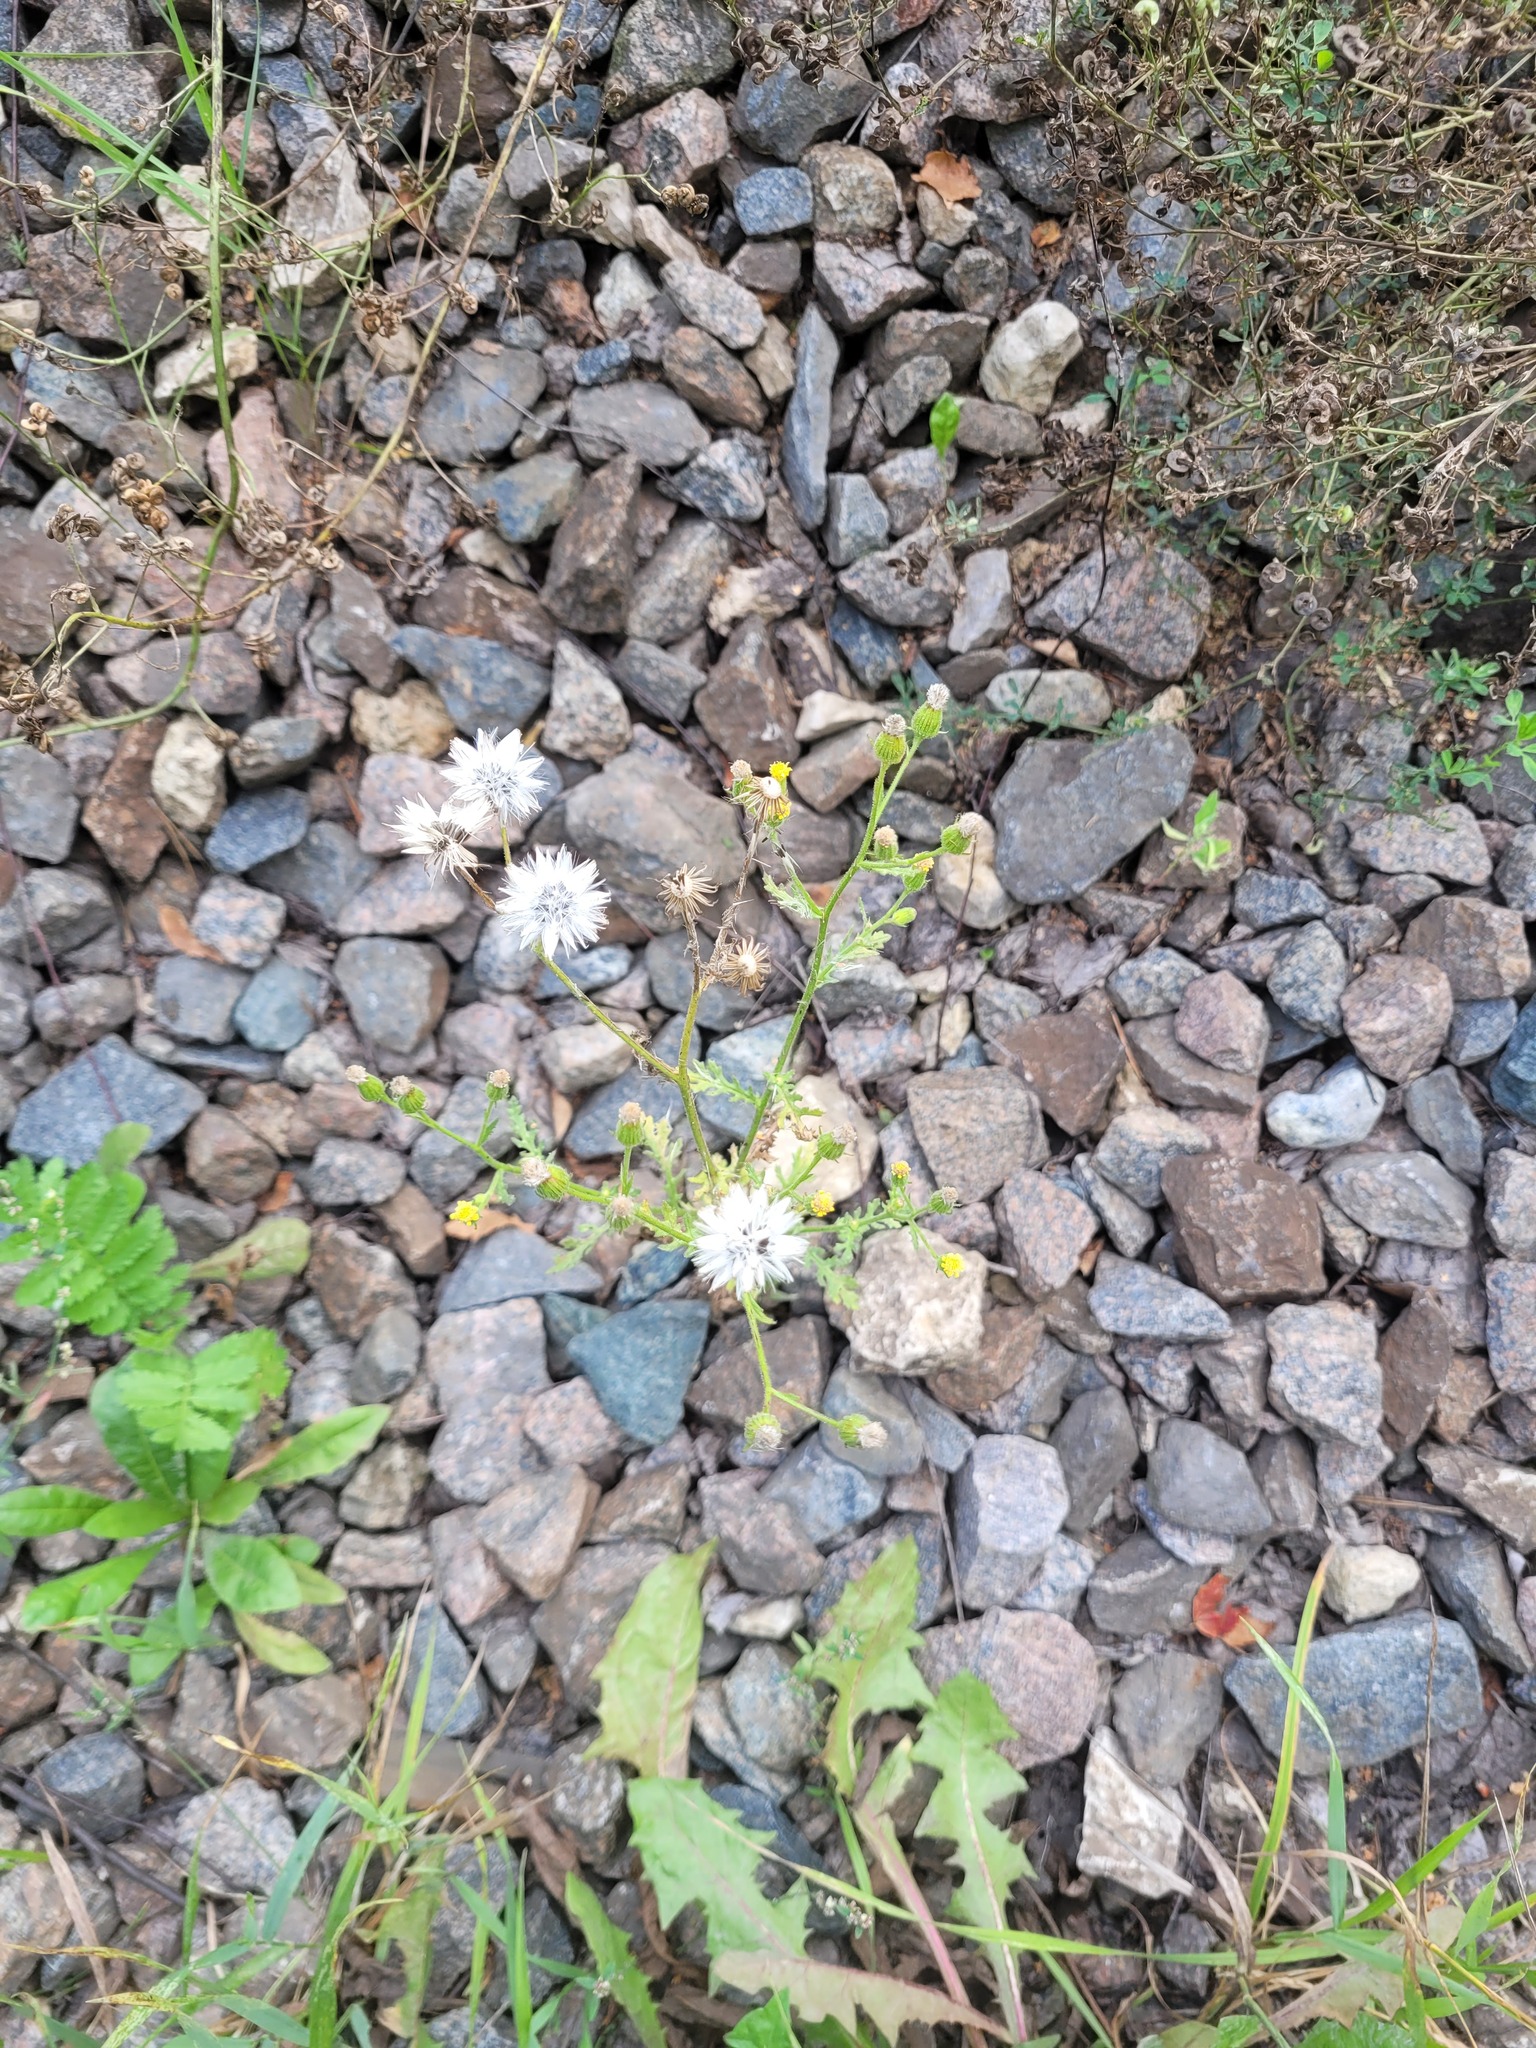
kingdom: Plantae
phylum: Tracheophyta
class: Magnoliopsida
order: Asterales
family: Asteraceae
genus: Senecio
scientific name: Senecio viscosus
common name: Sticky groundsel
